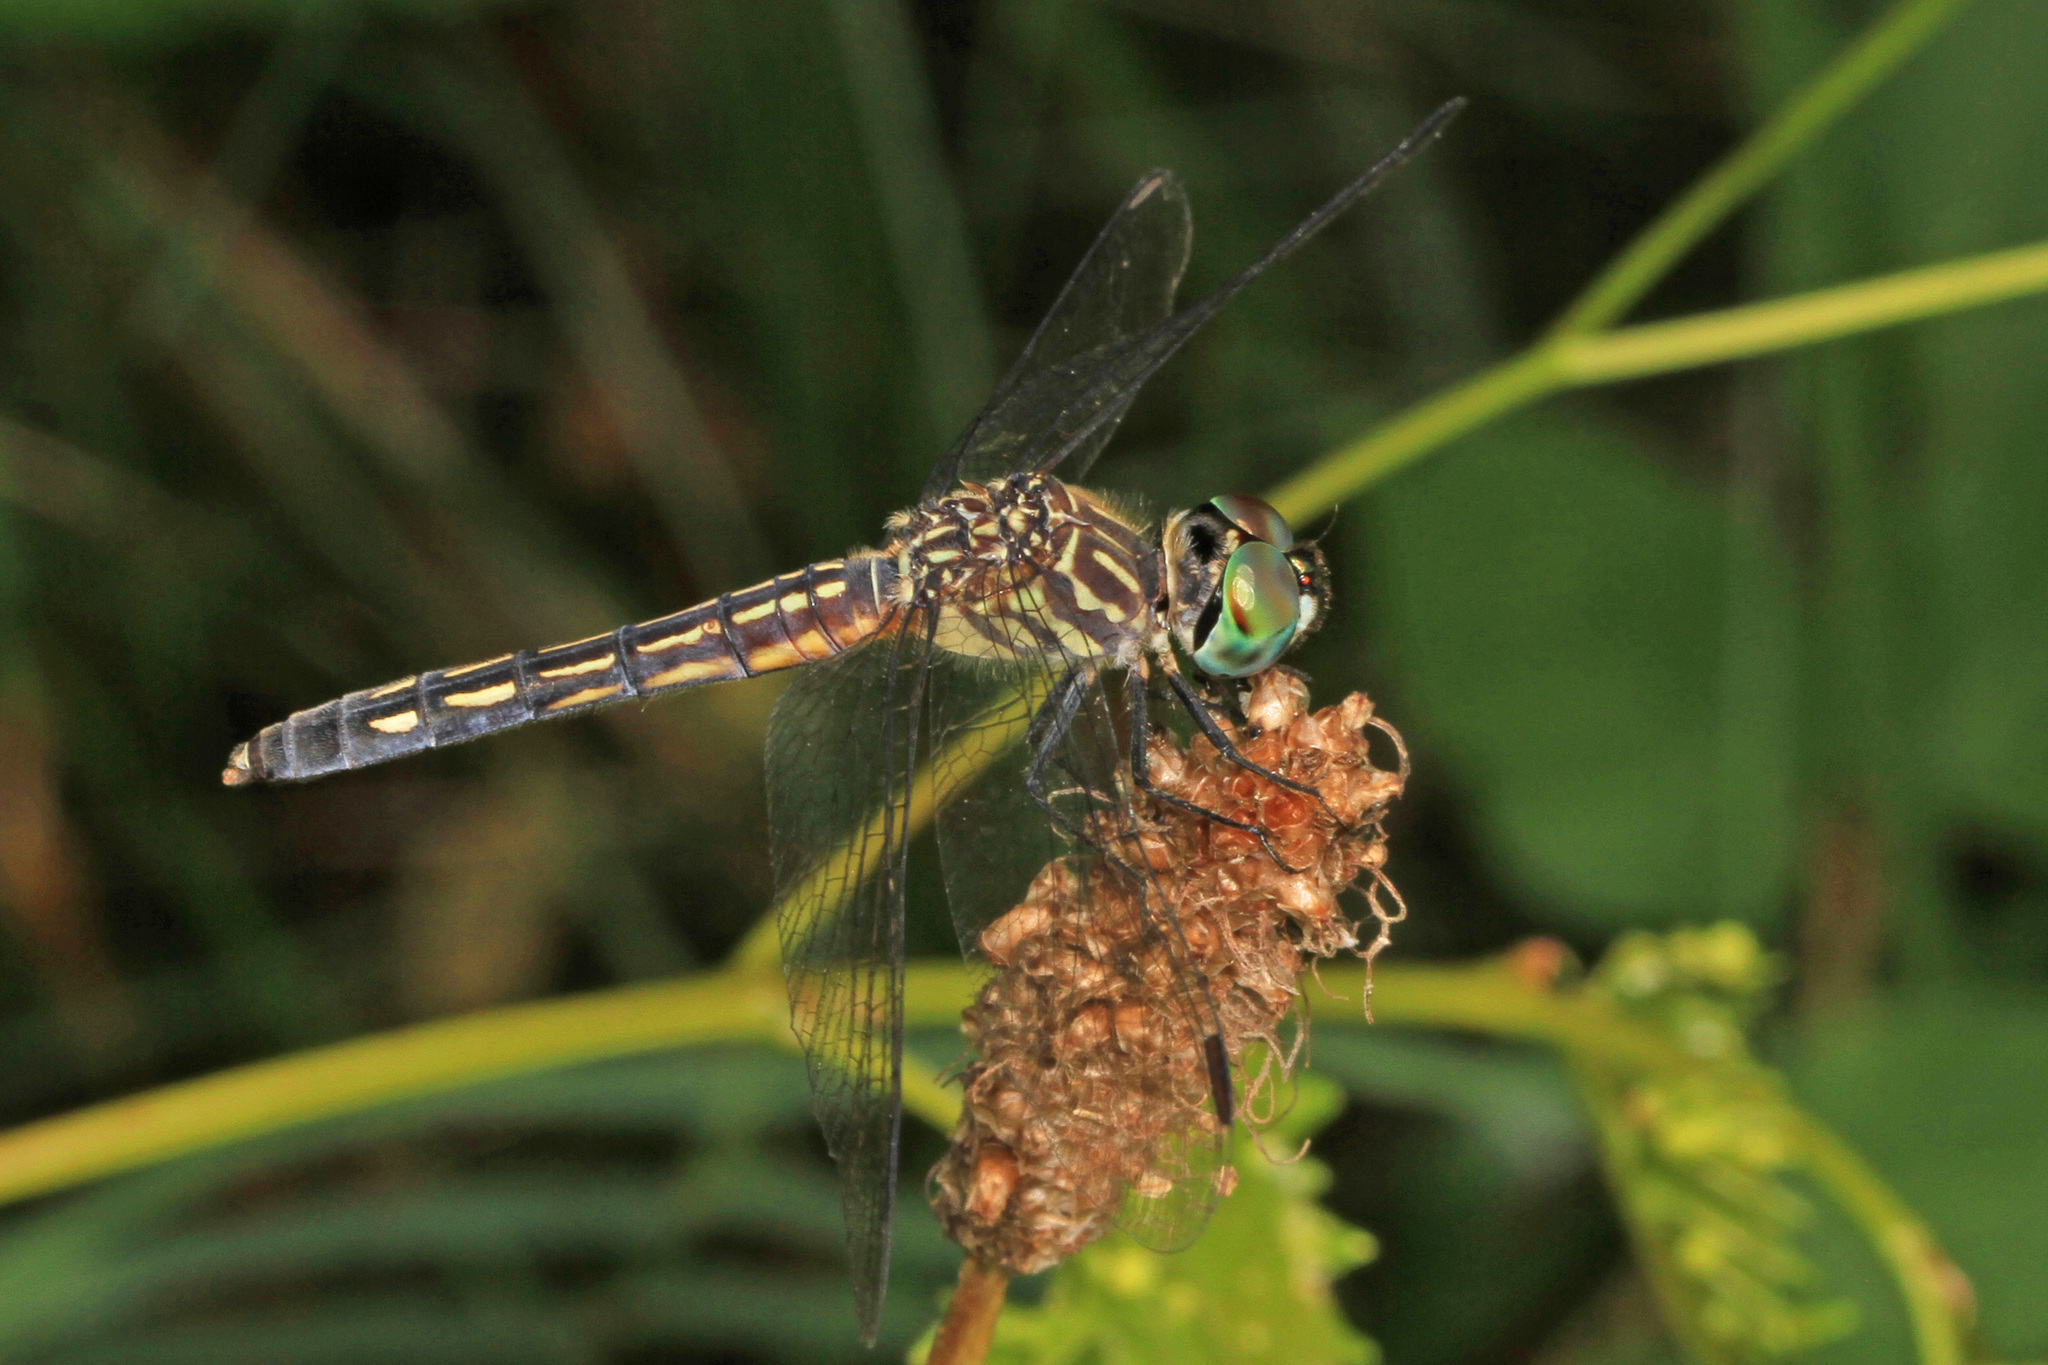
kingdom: Animalia
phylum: Arthropoda
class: Insecta
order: Odonata
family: Libellulidae
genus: Pachydiplax
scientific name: Pachydiplax longipennis
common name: Blue dasher
